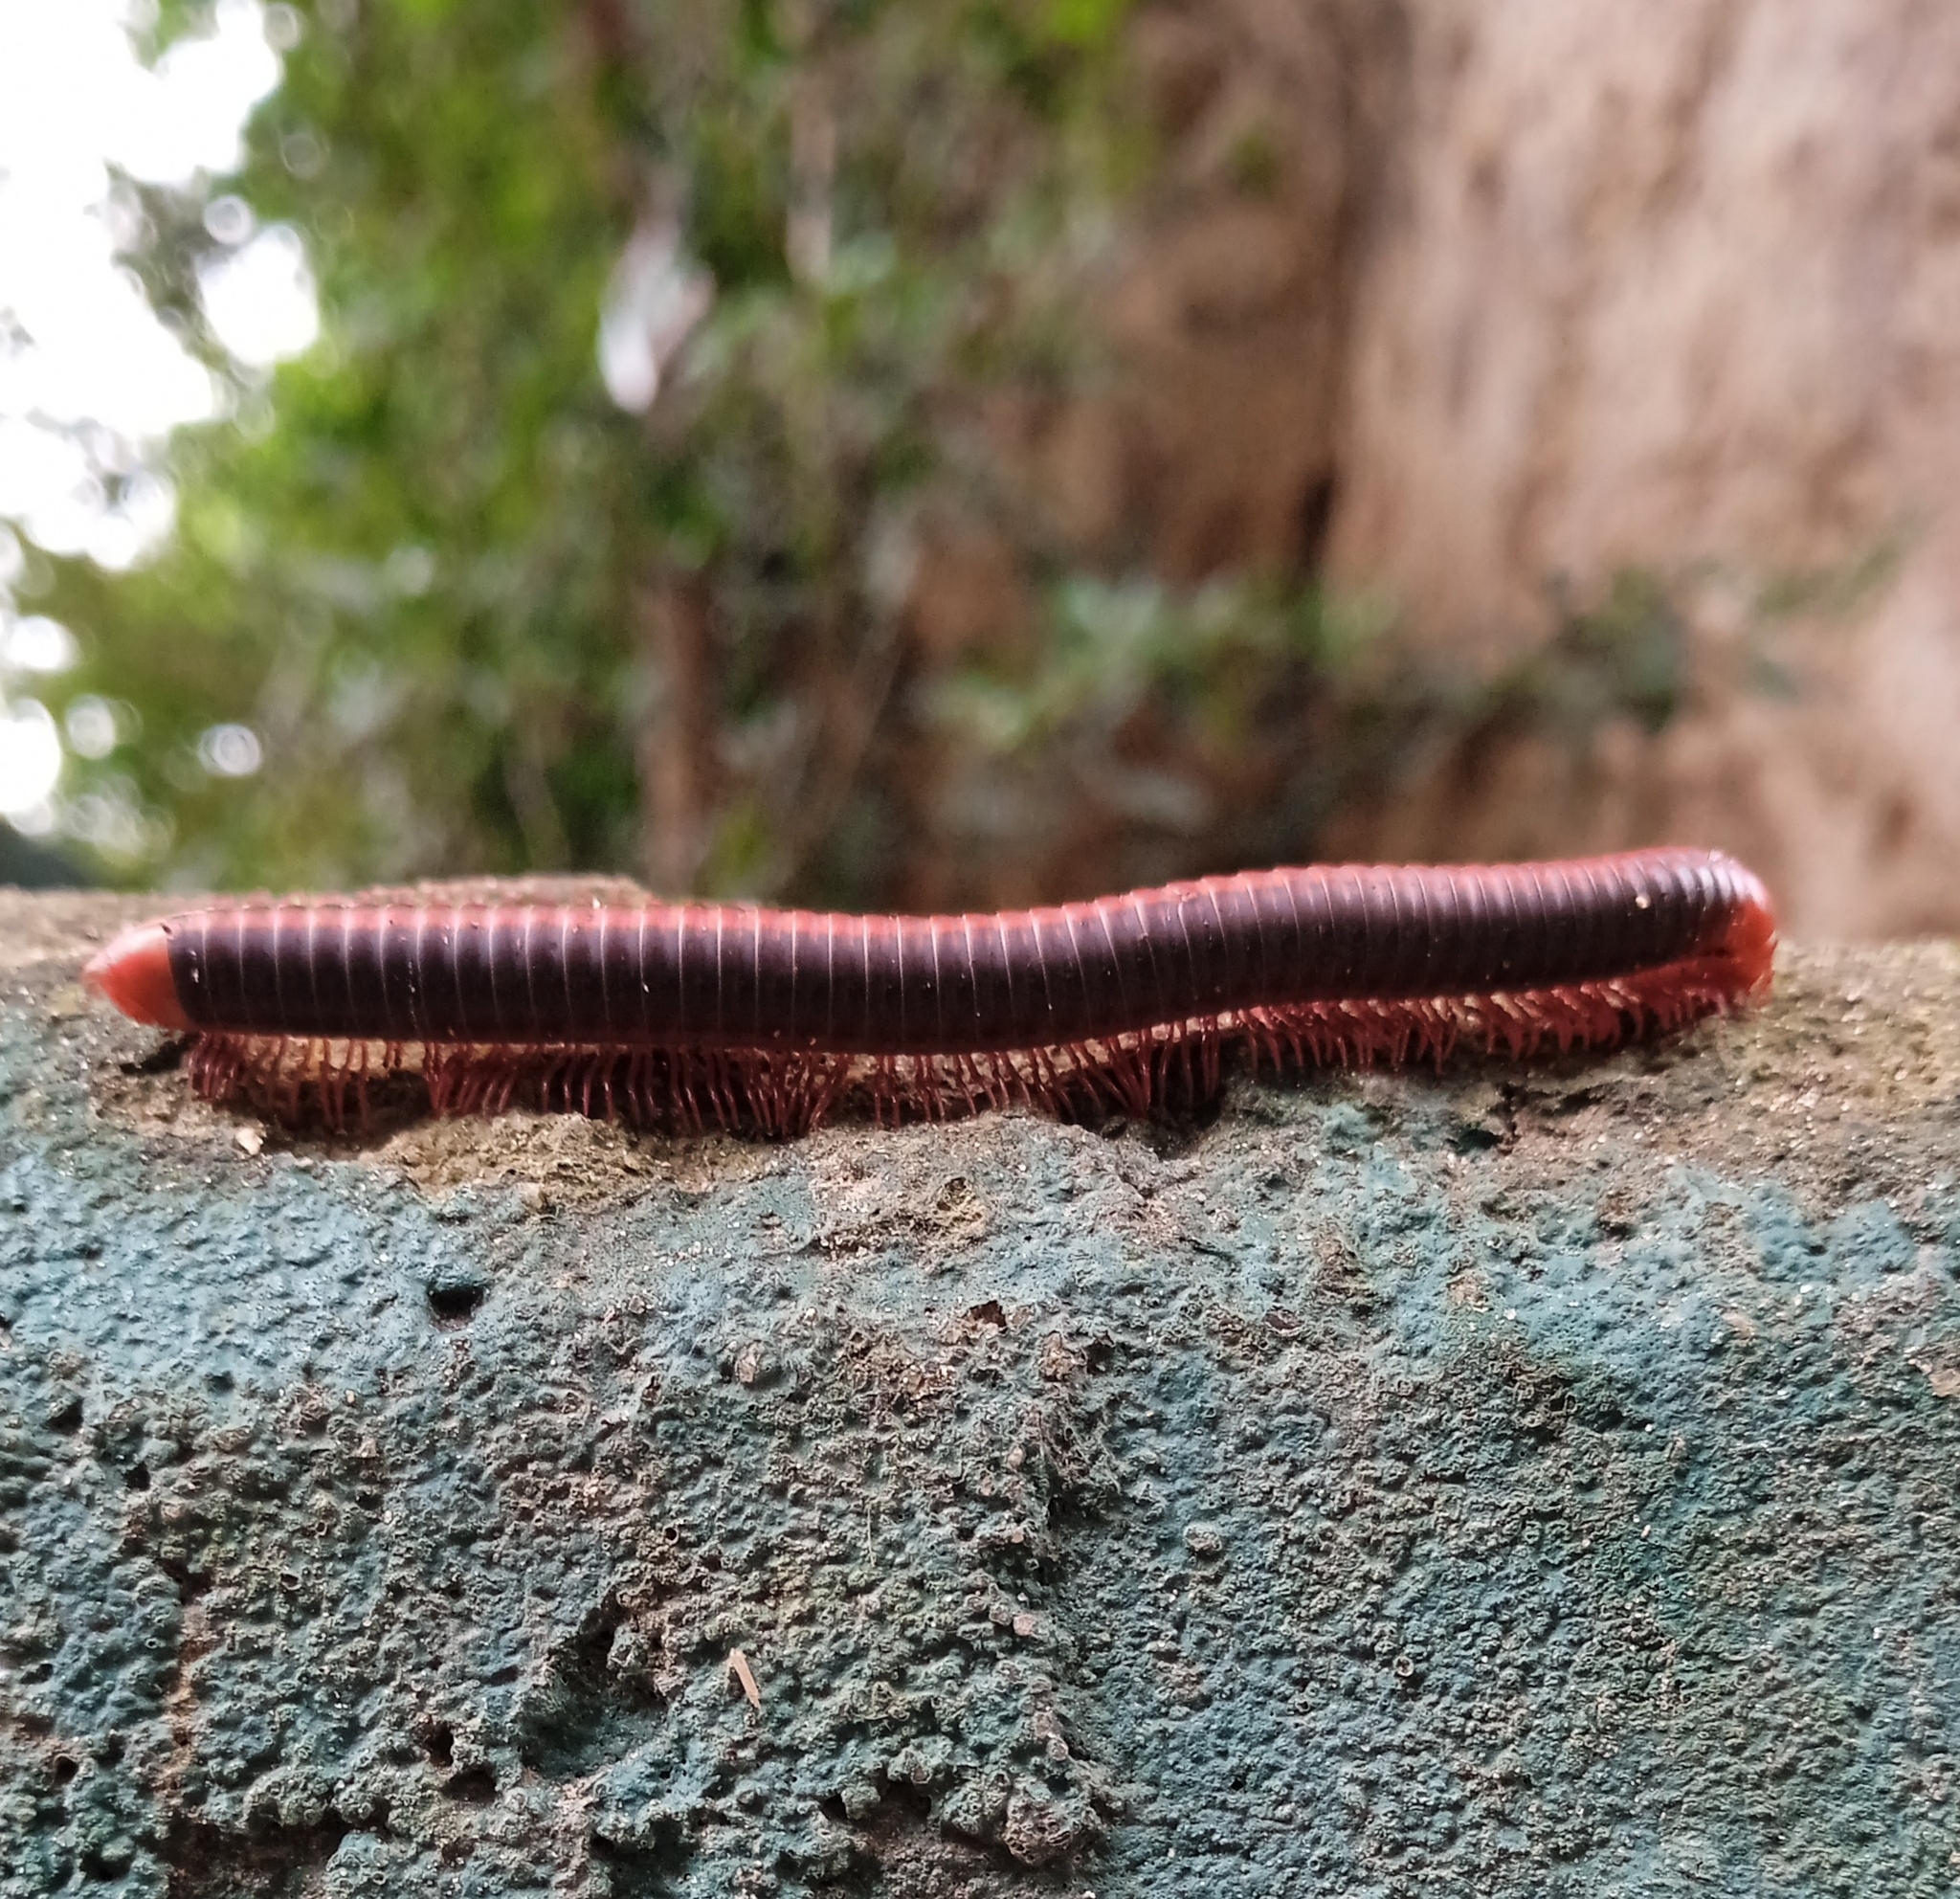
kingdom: Animalia
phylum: Arthropoda
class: Diplopoda
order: Spirobolida
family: Pachybolidae
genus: Xenobolus
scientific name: Xenobolus carnifex
